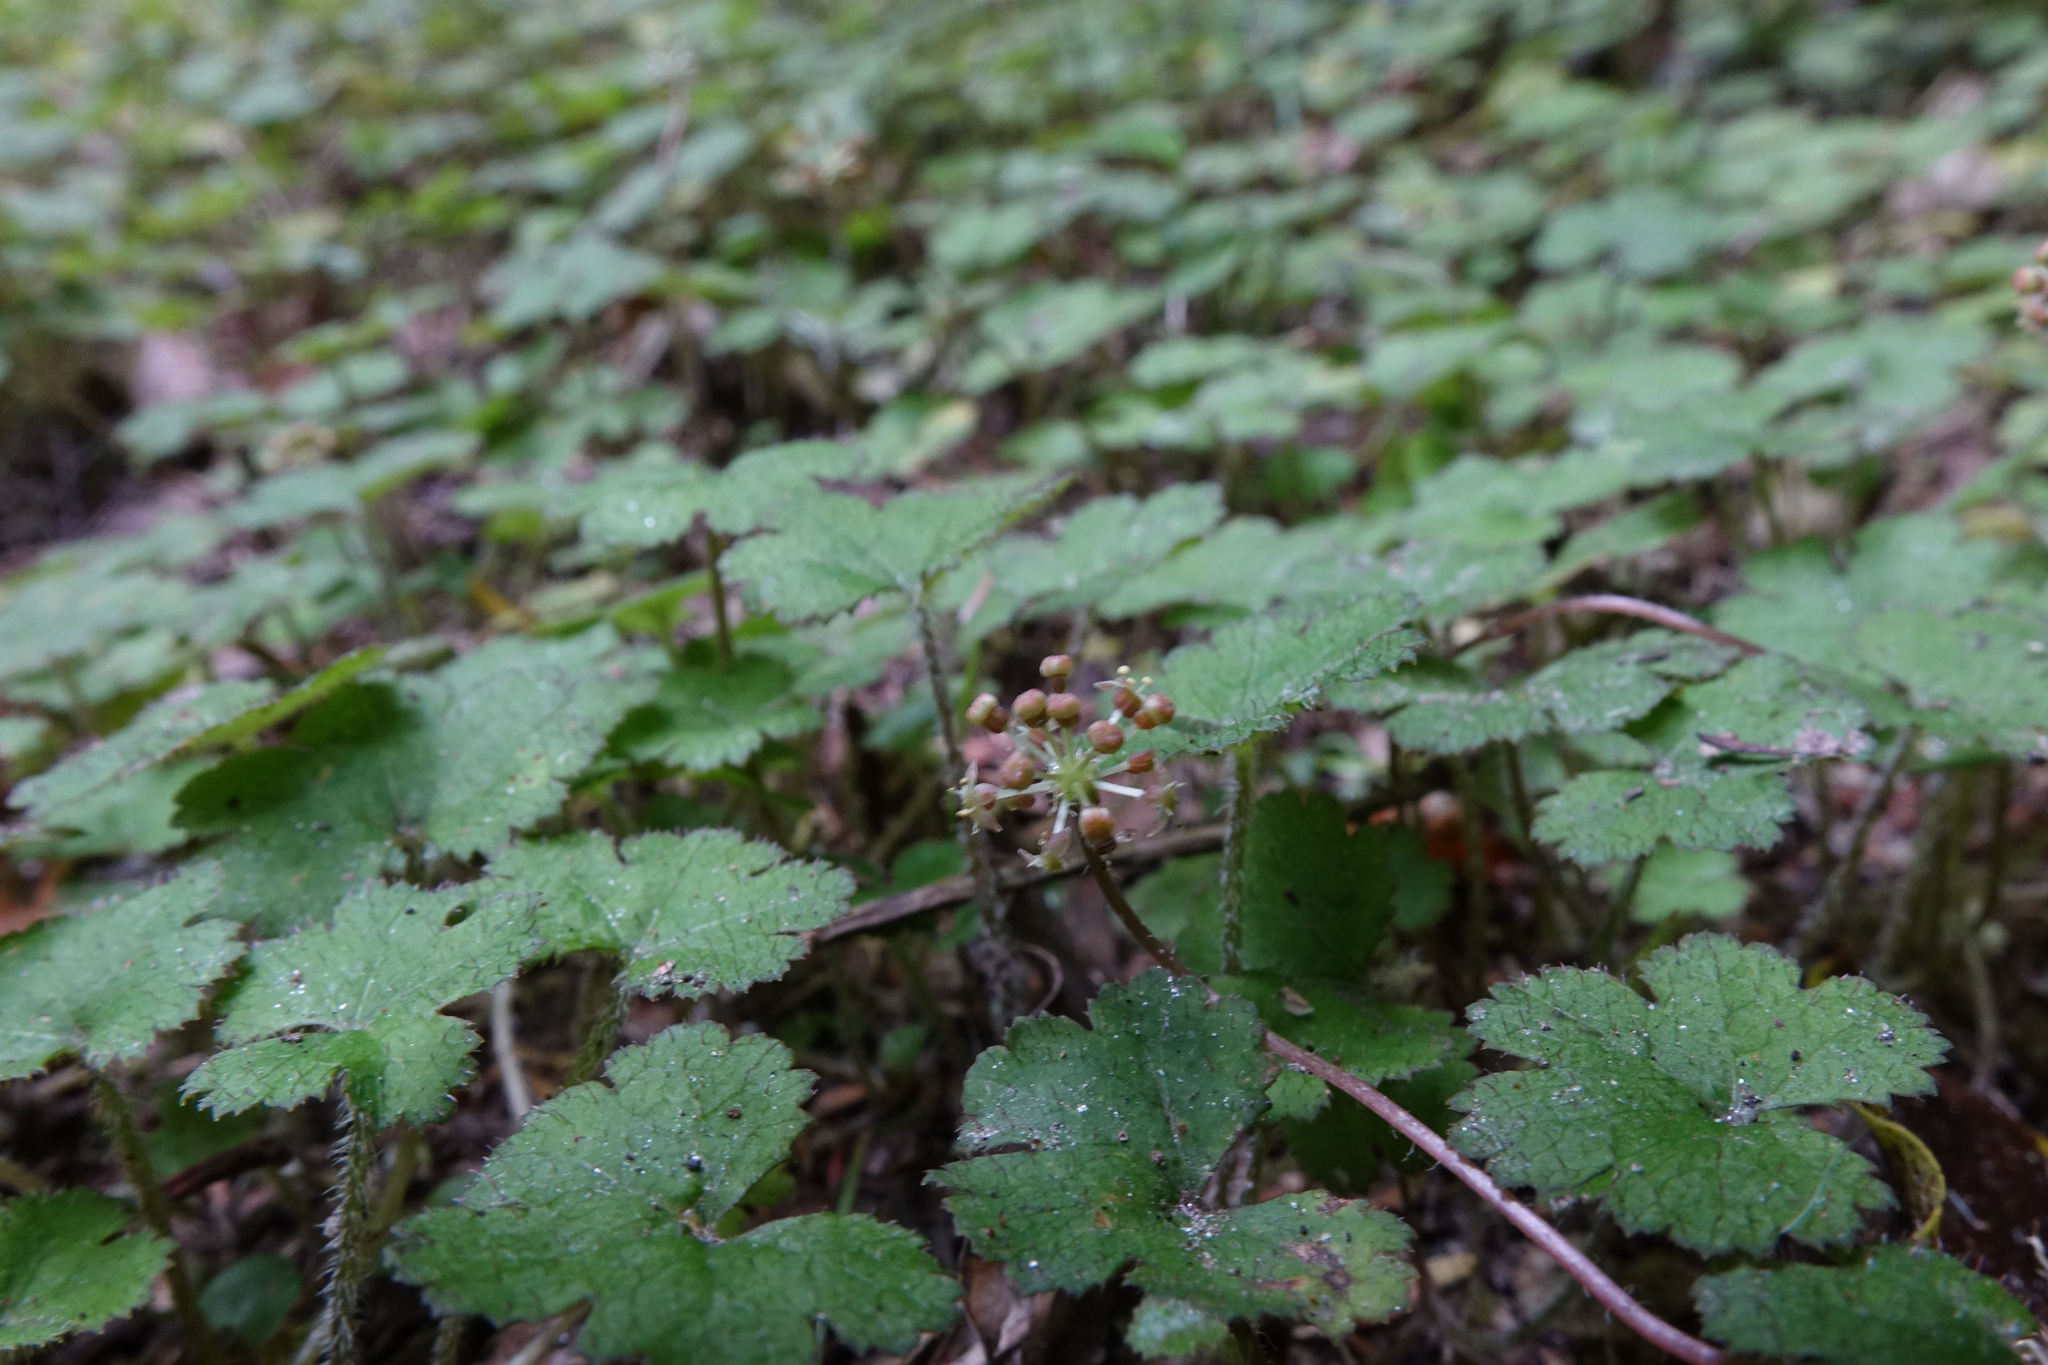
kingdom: Plantae
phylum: Tracheophyta
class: Magnoliopsida
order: Apiales
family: Araliaceae
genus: Hydrocotyle
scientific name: Hydrocotyle elongata
